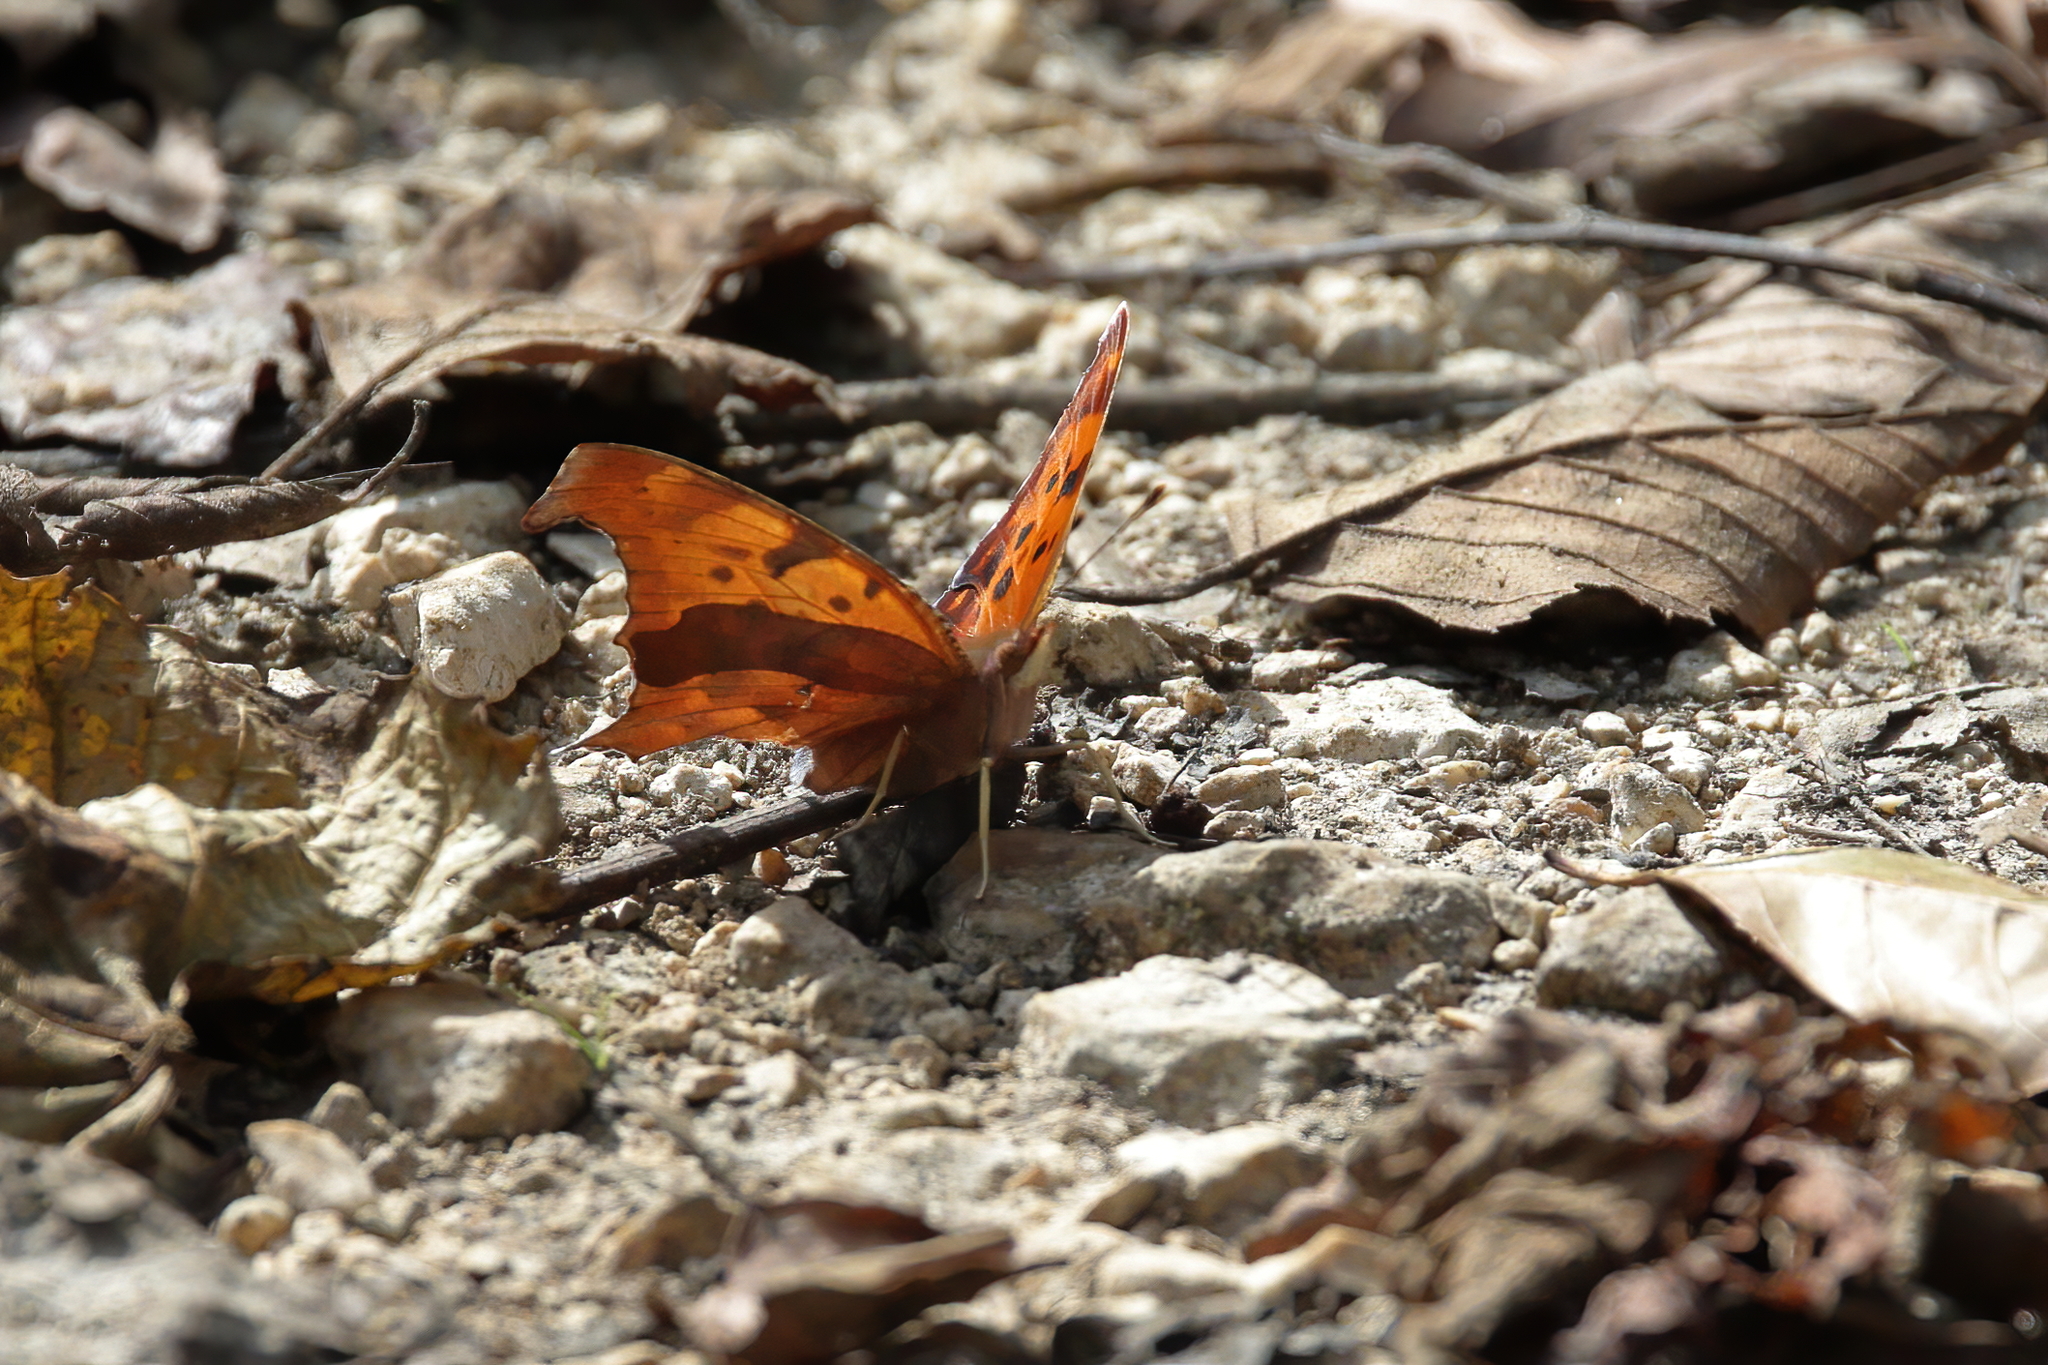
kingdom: Animalia
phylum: Arthropoda
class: Insecta
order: Lepidoptera
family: Nymphalidae
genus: Polygonia
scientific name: Polygonia interrogationis
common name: Question mark
